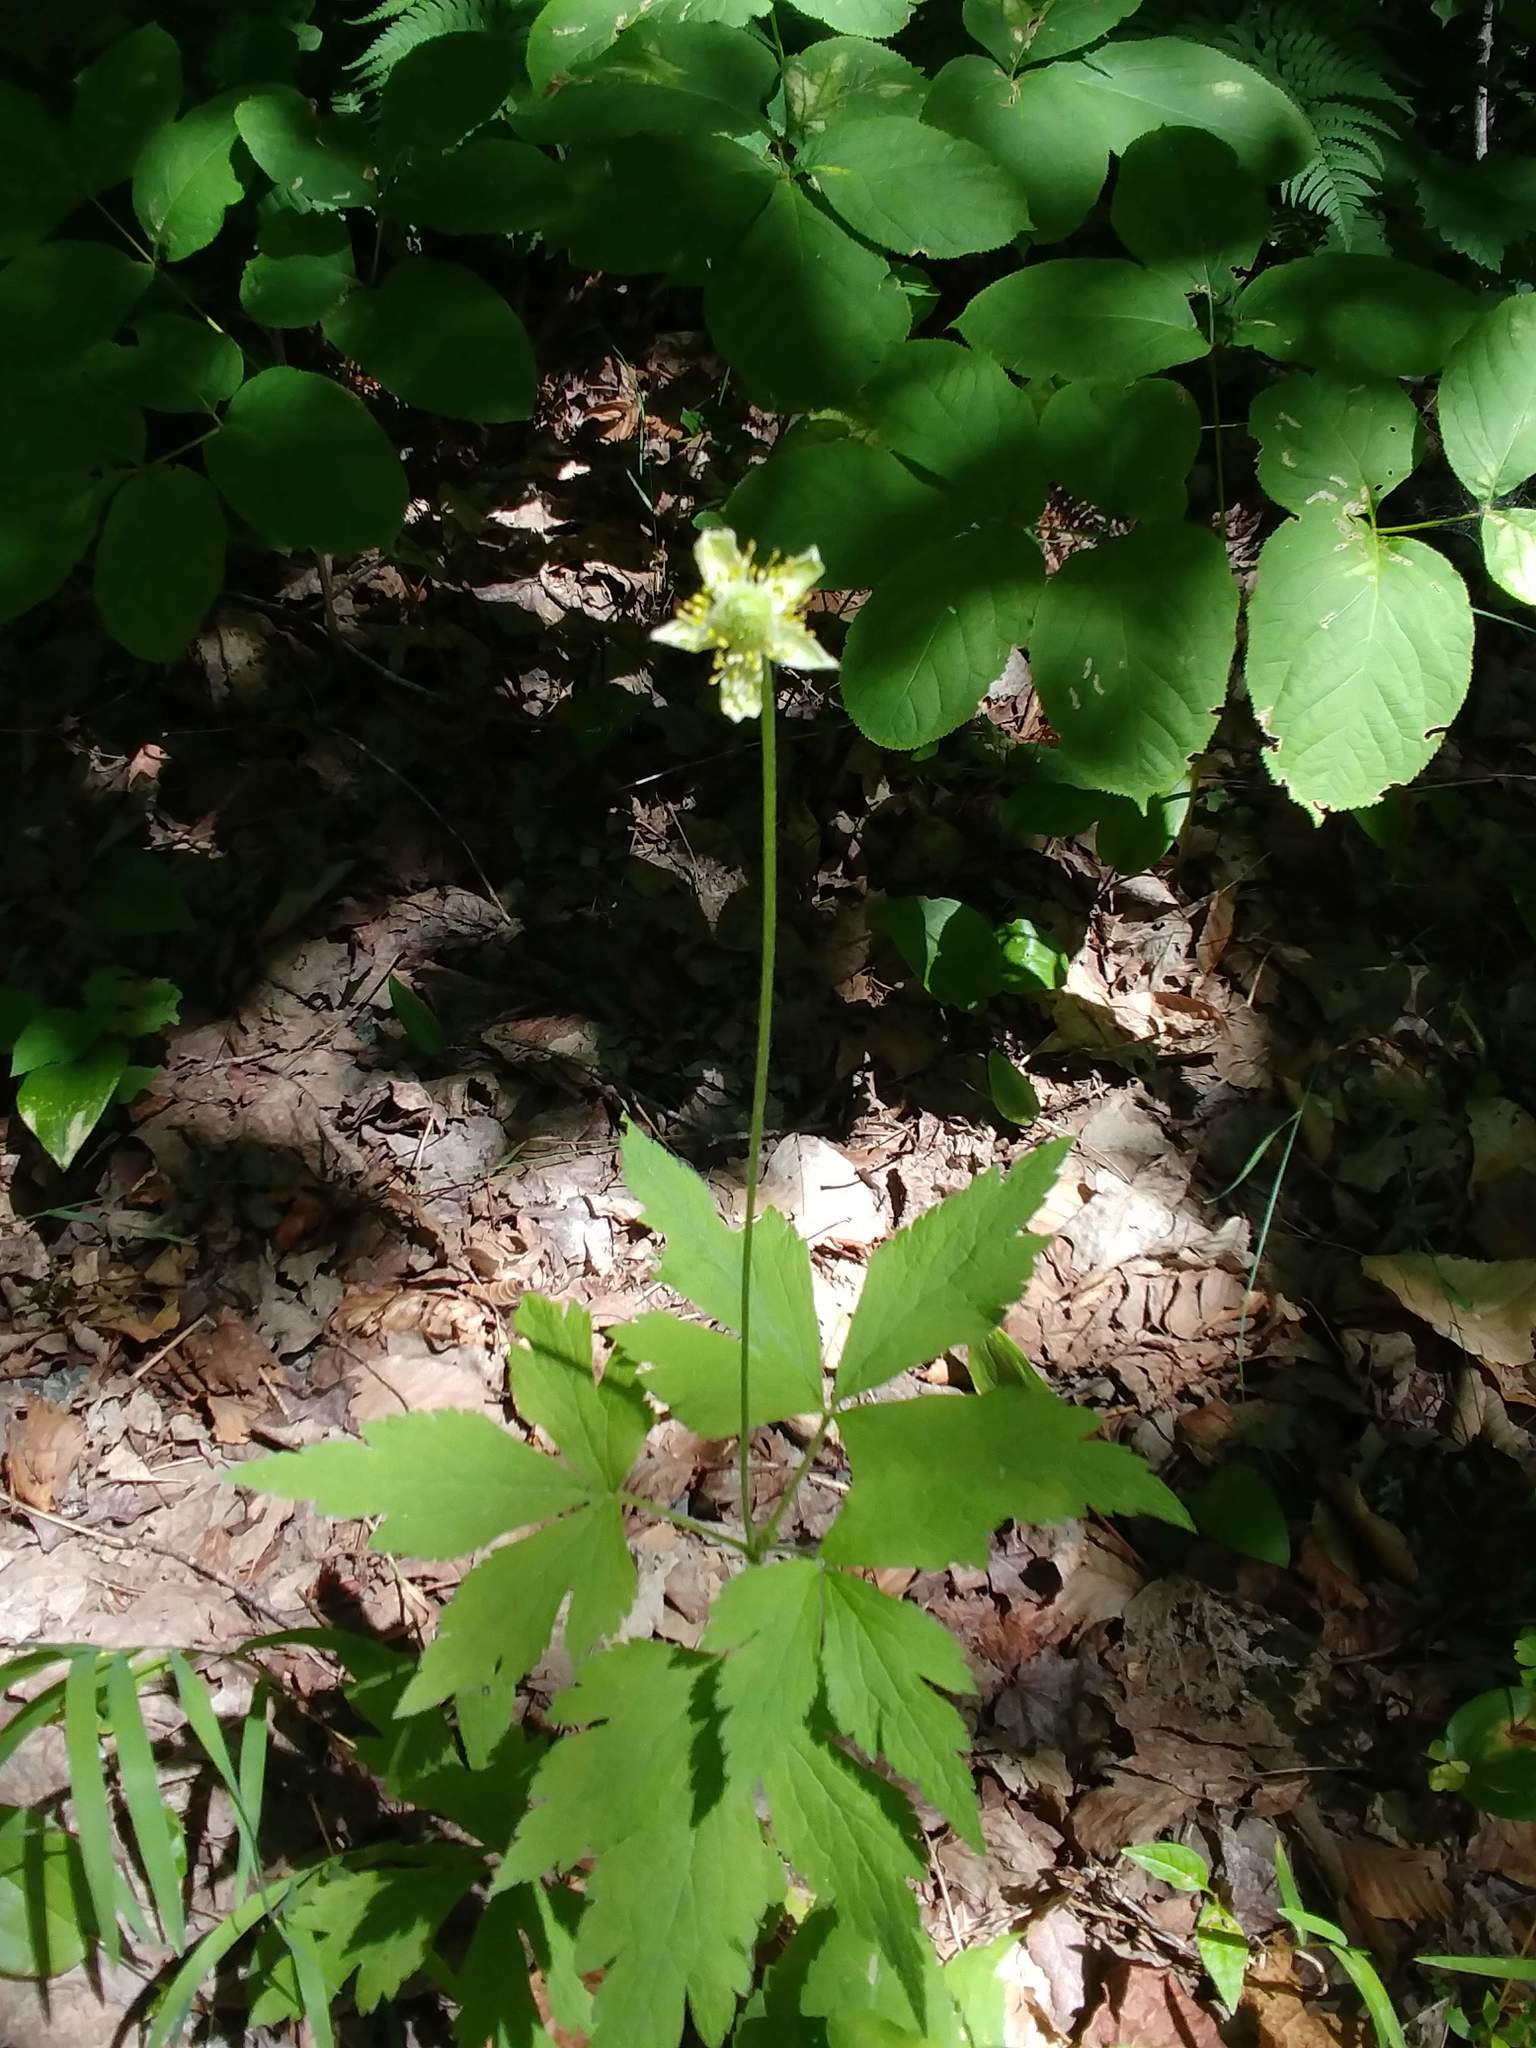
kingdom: Plantae
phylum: Tracheophyta
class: Magnoliopsida
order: Ranunculales
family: Ranunculaceae
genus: Anemone
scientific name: Anemone virginiana
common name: Tall anemone
